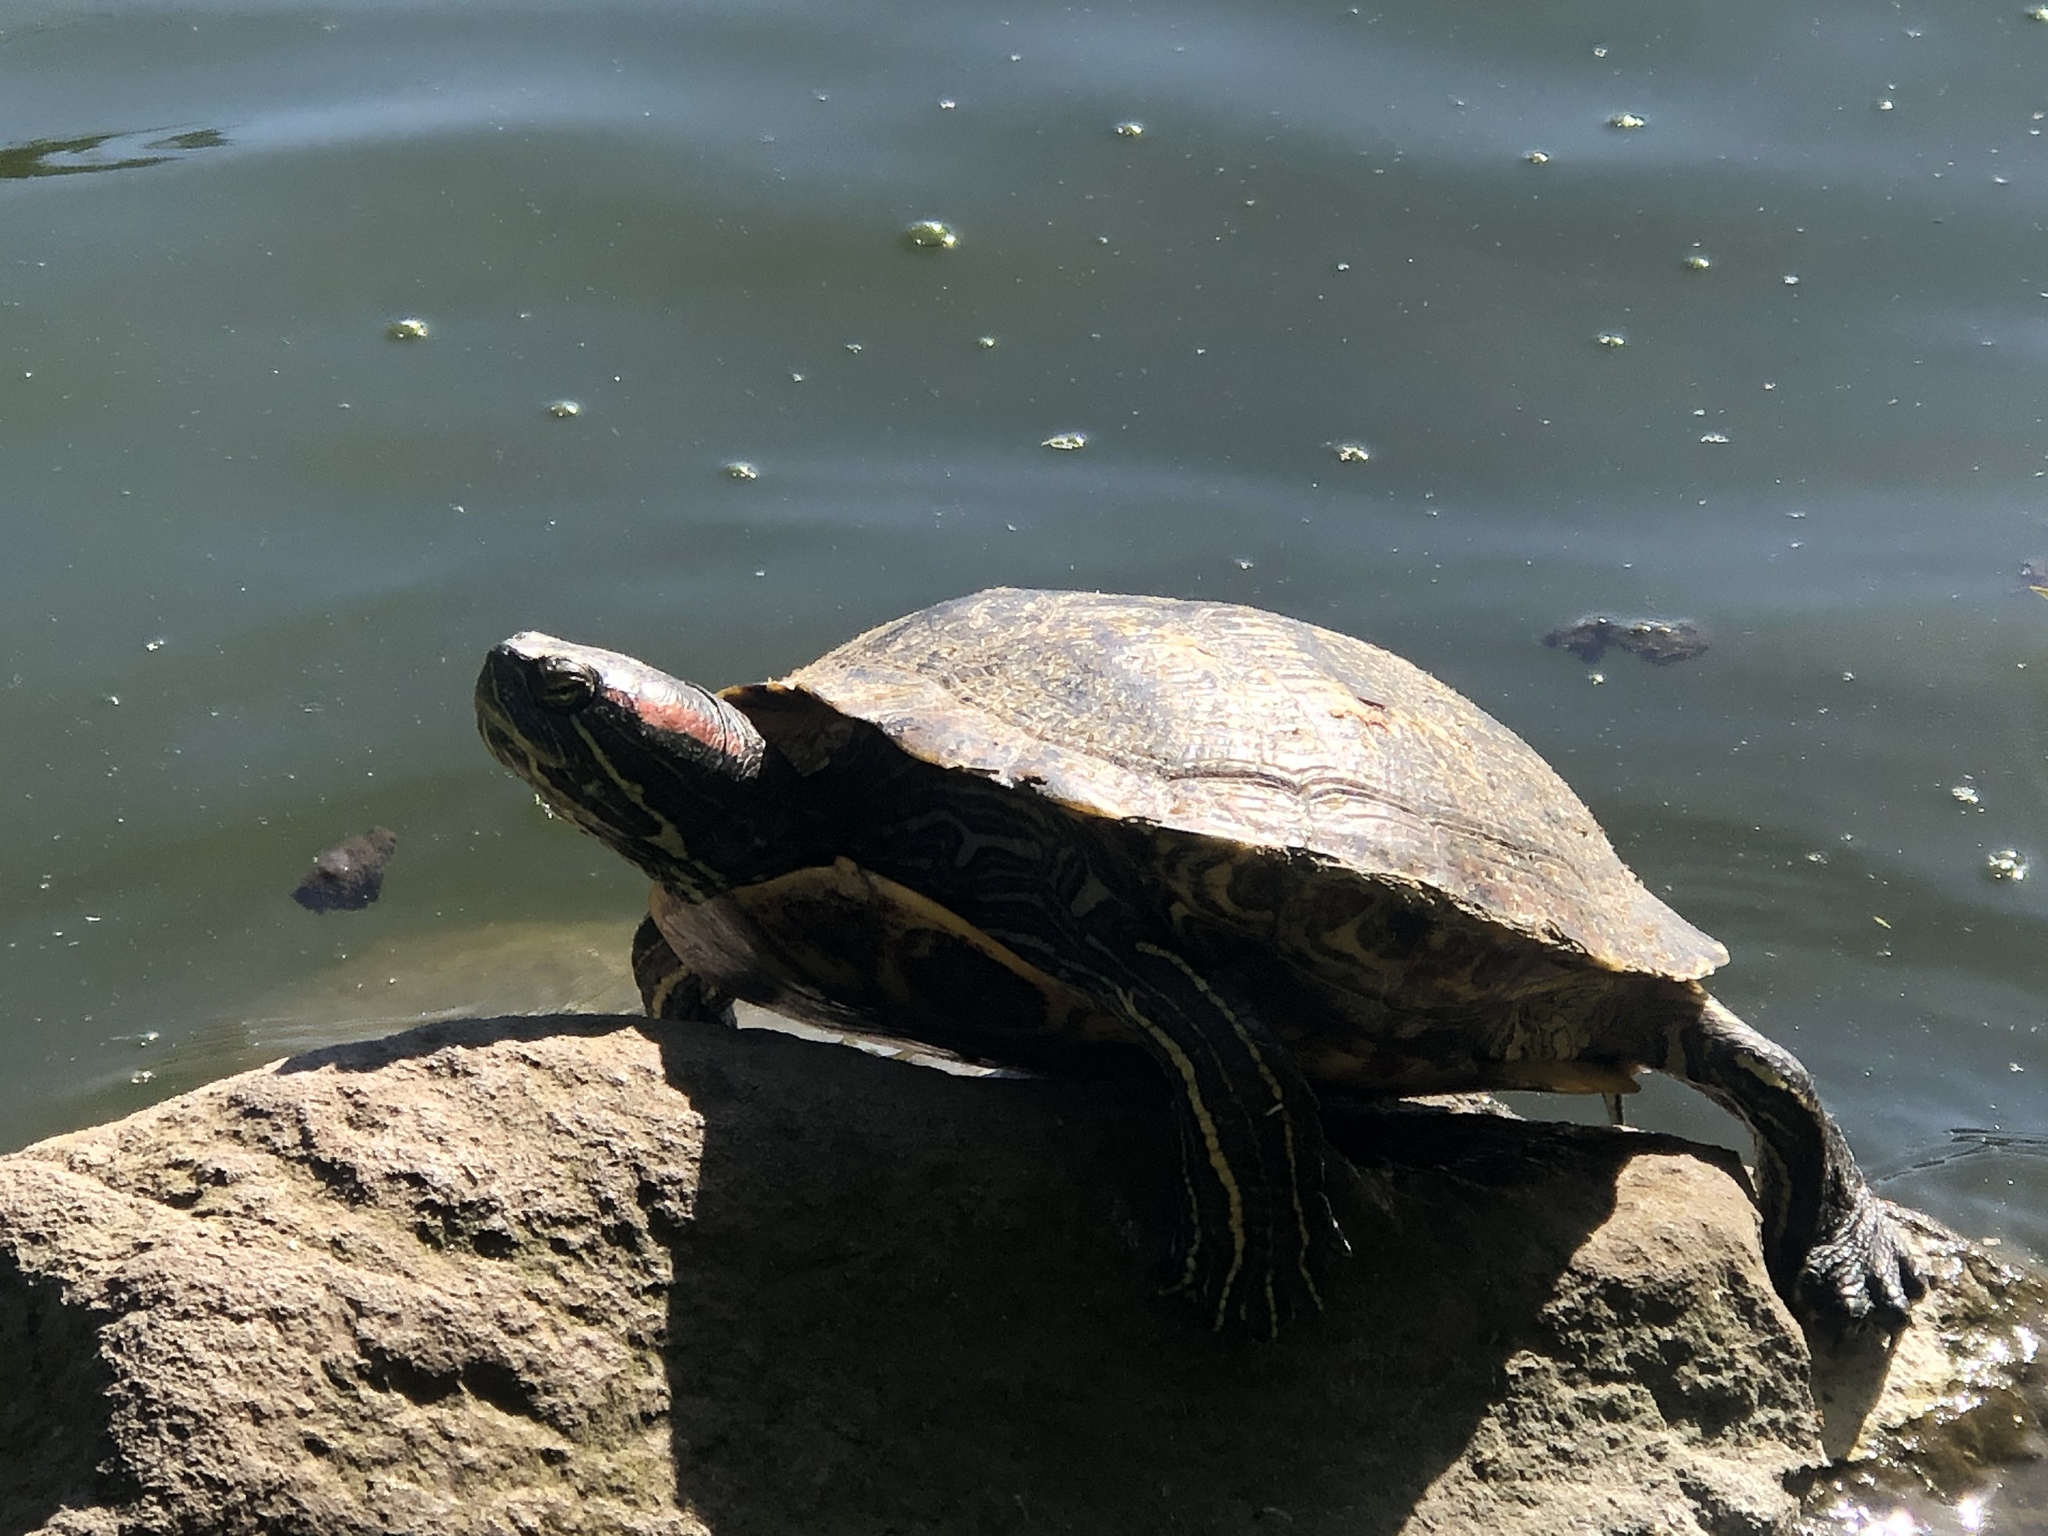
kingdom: Animalia
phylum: Chordata
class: Testudines
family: Emydidae
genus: Trachemys
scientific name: Trachemys scripta
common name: Slider
